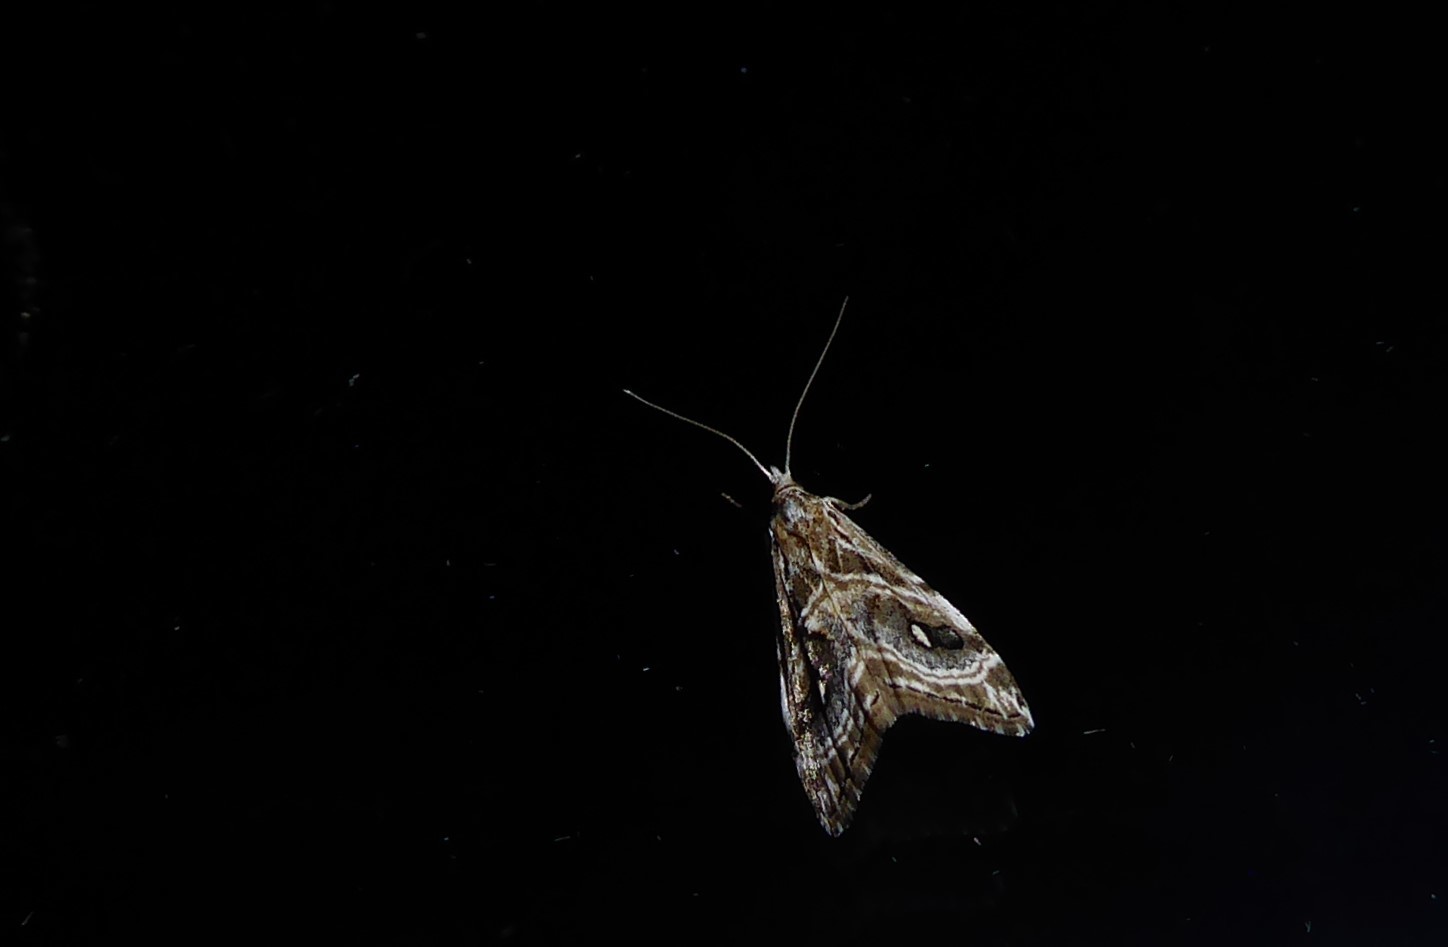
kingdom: Animalia
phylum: Arthropoda
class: Insecta
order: Lepidoptera
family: Crambidae
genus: Gadira
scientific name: Gadira acerella
